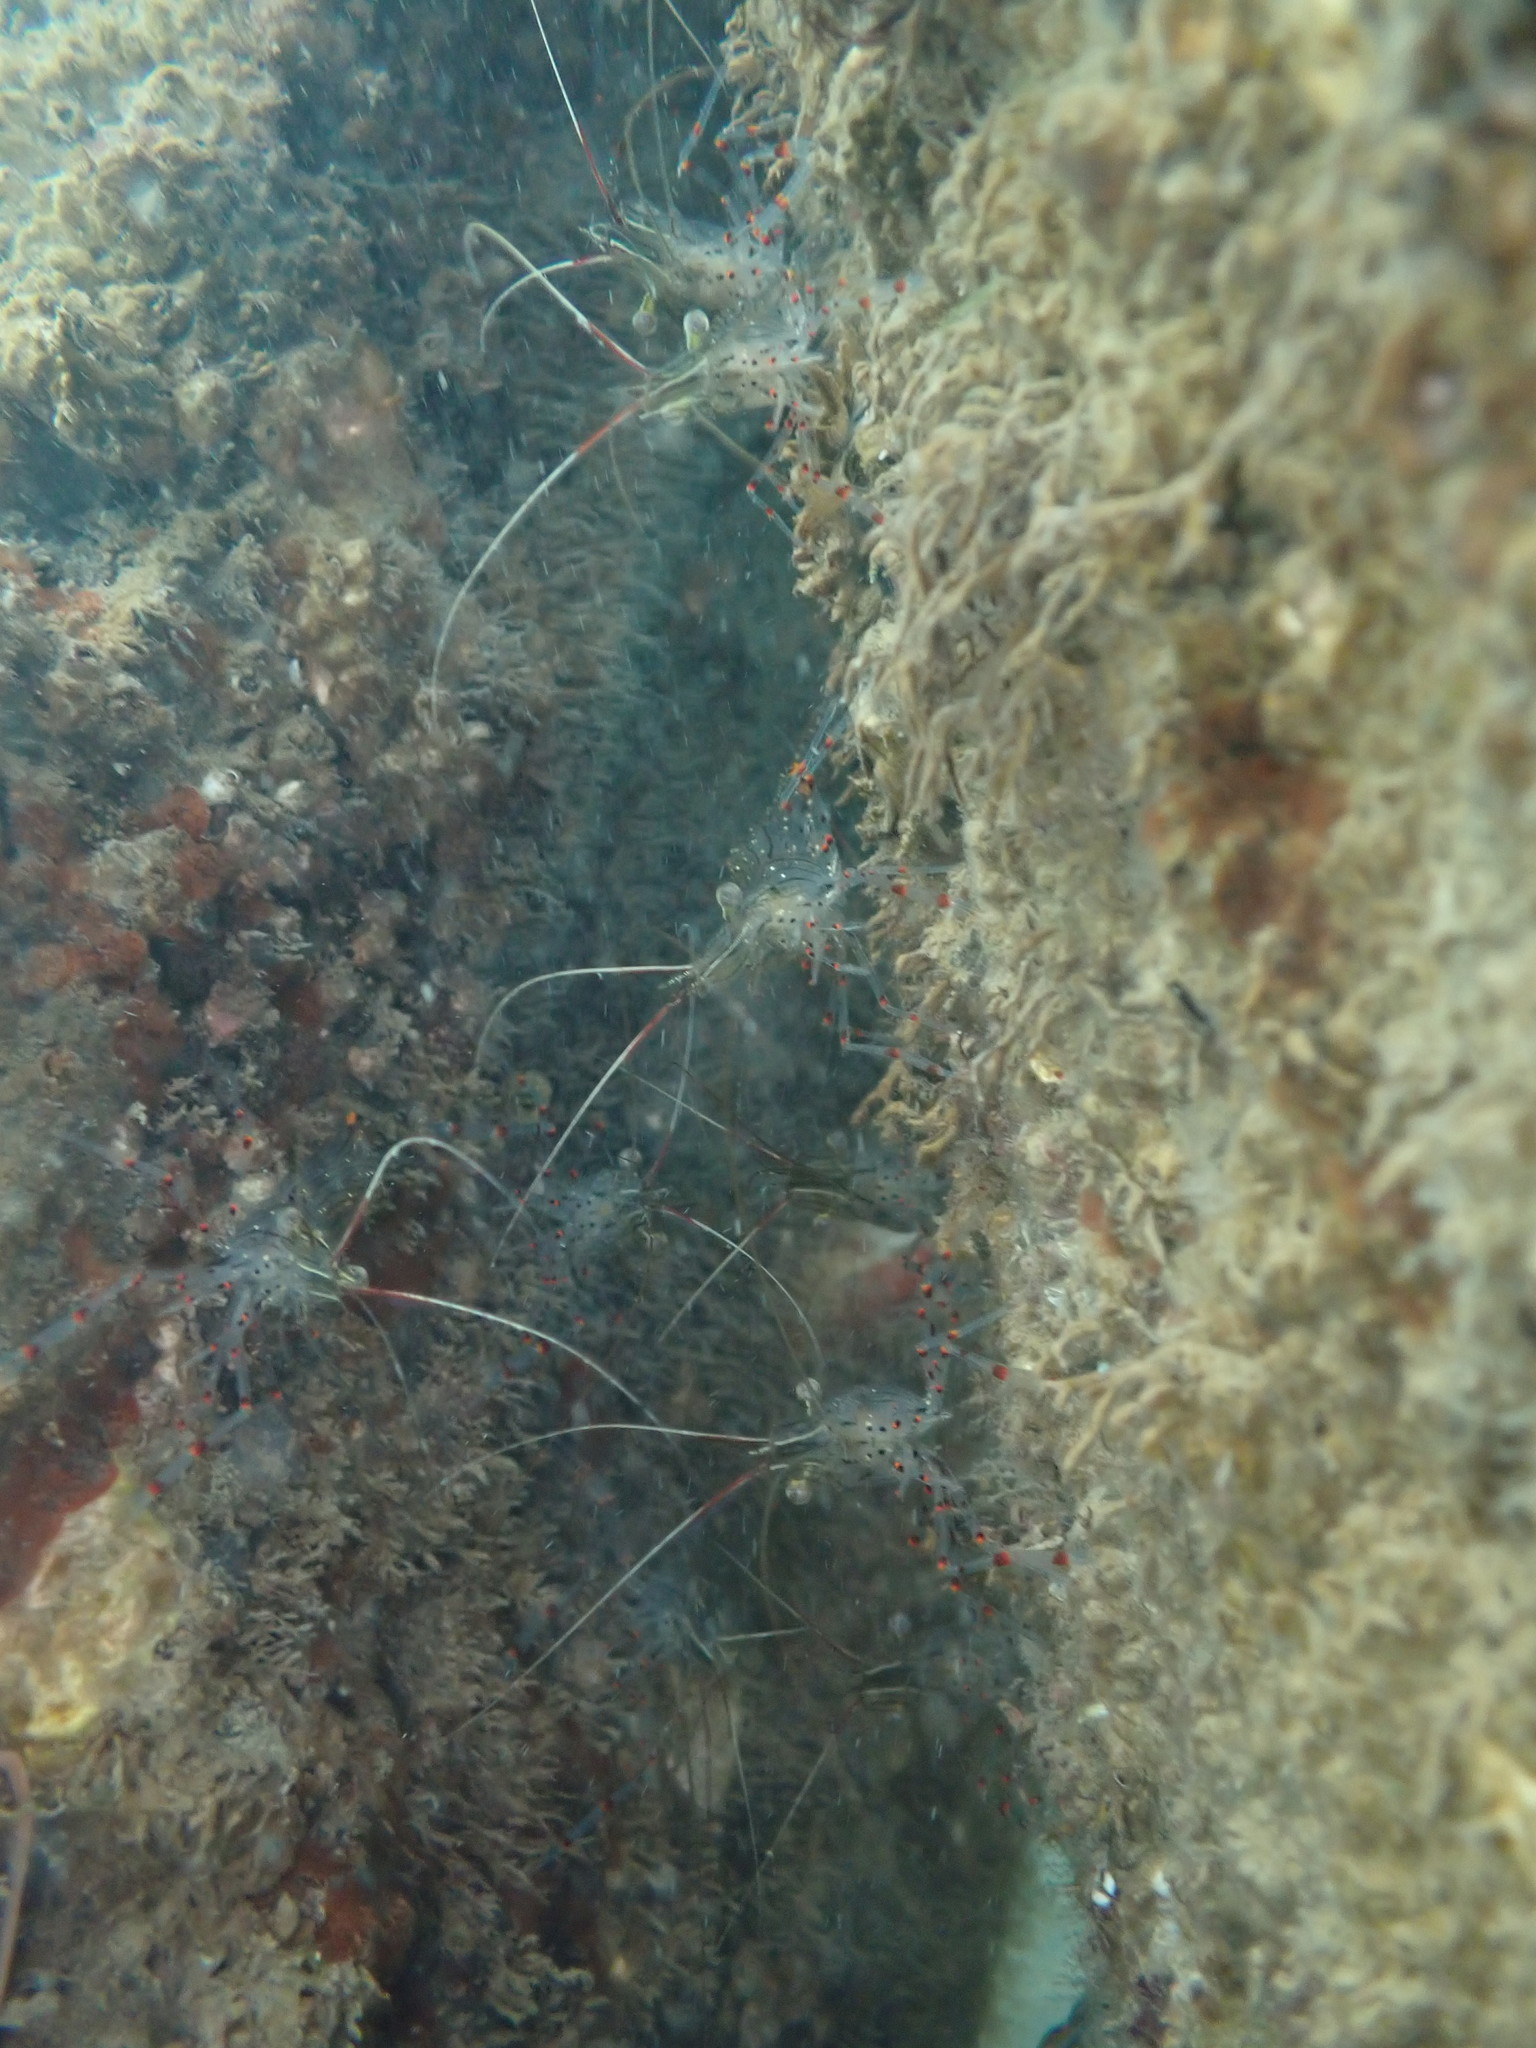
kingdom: Animalia
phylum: Arthropoda
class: Malacostraca
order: Decapoda
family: Palaemonidae
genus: Palaemon
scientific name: Palaemon affinis
